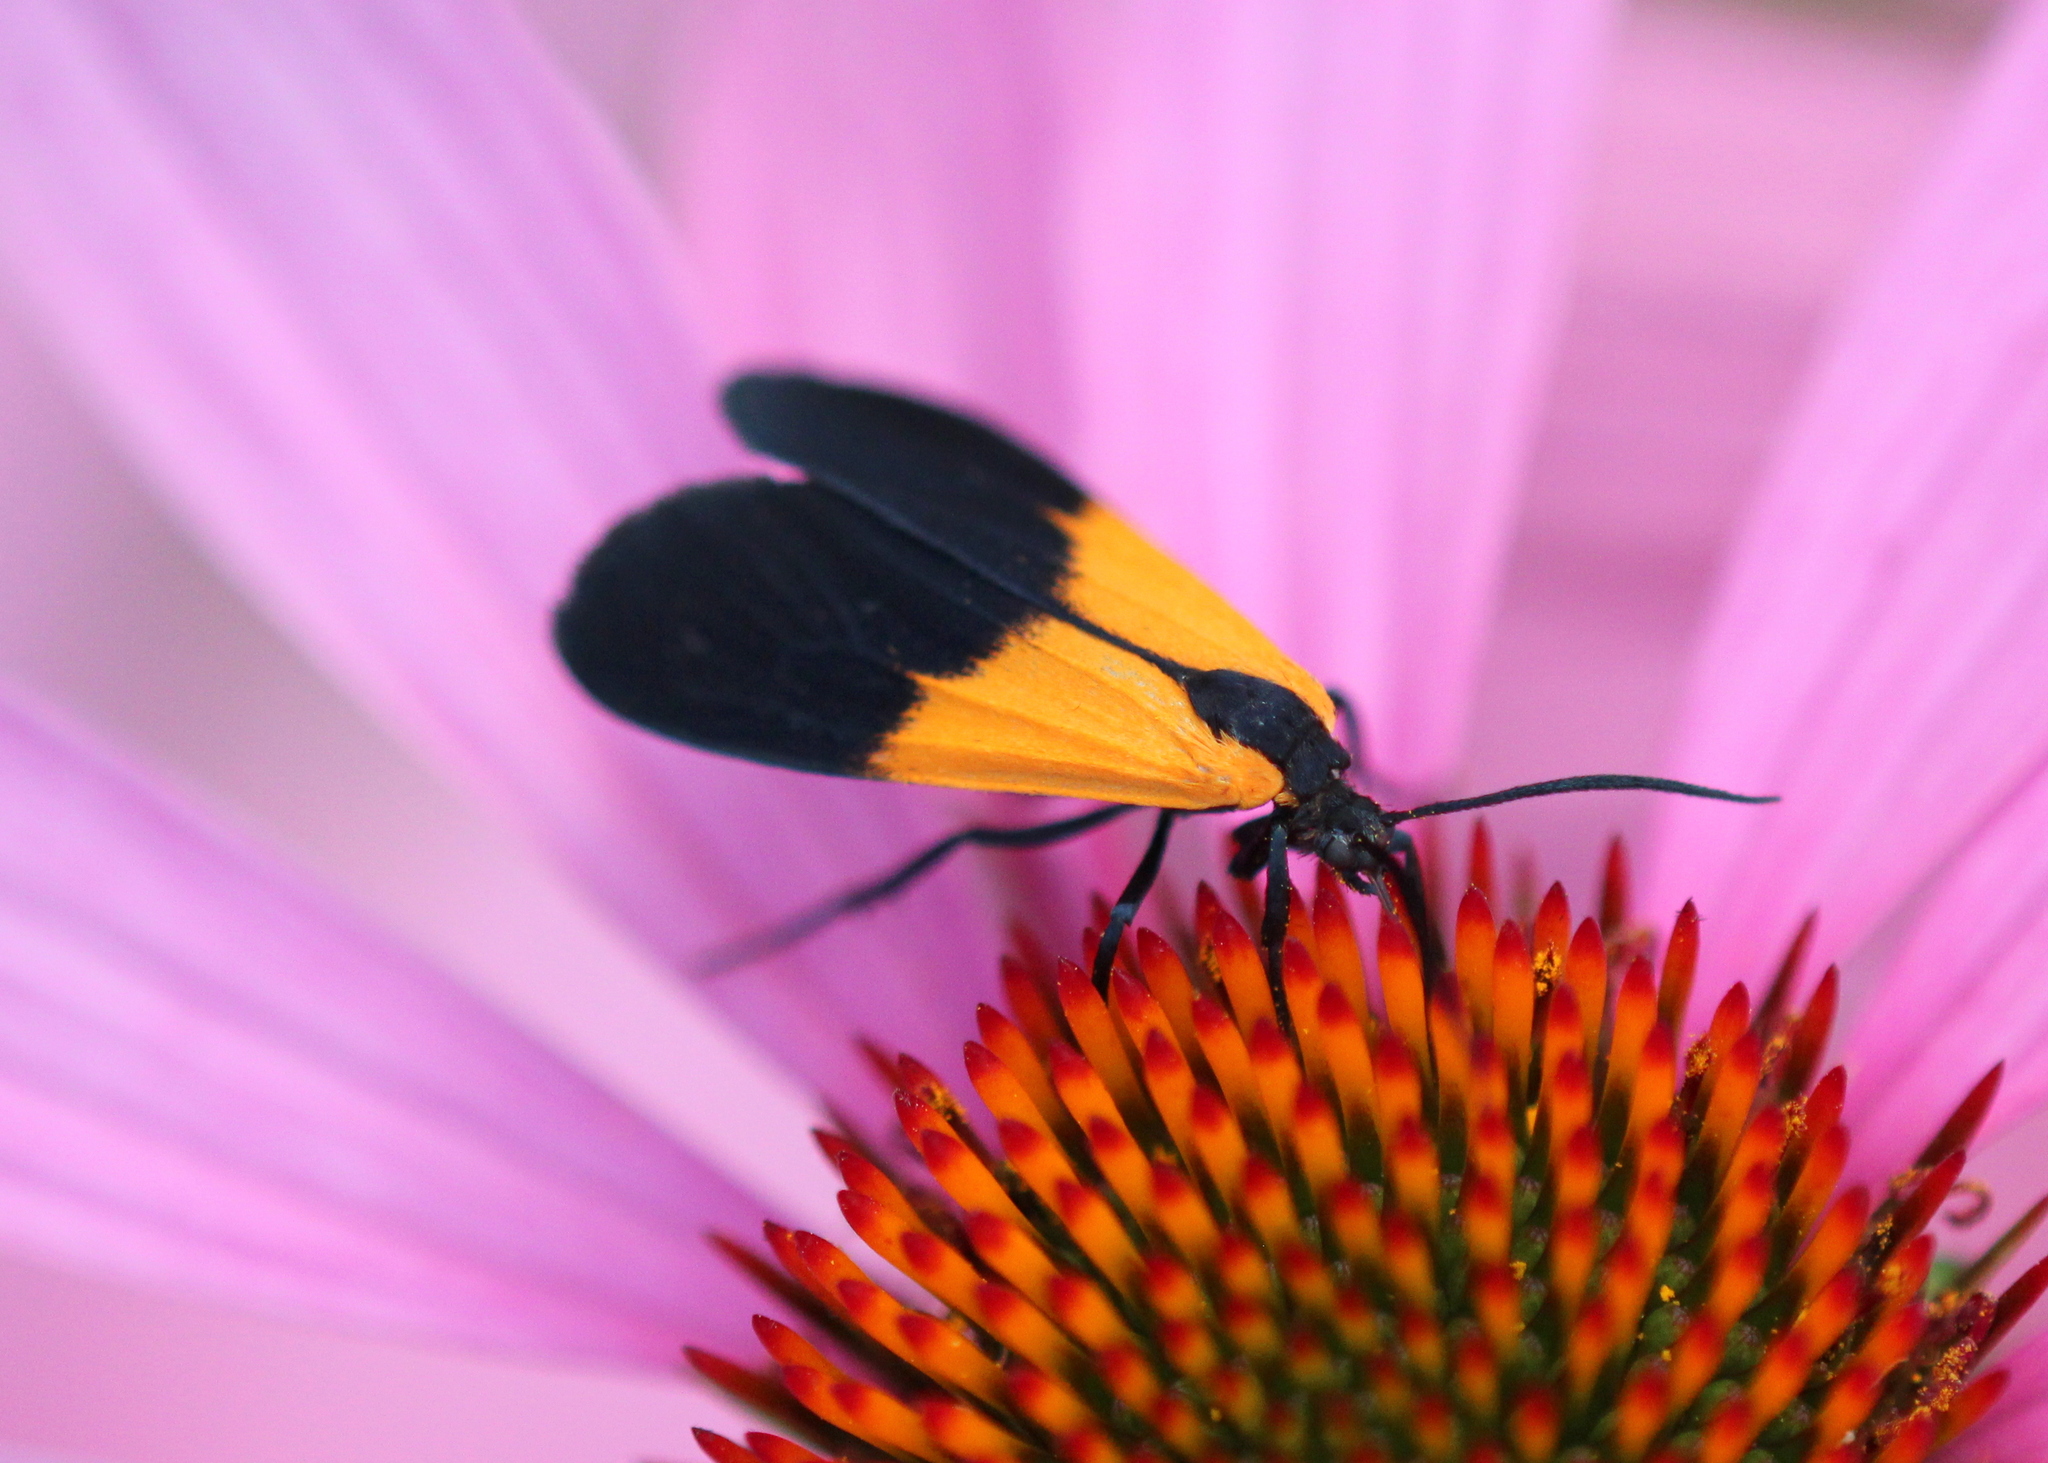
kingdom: Animalia
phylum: Arthropoda
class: Insecta
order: Lepidoptera
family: Erebidae
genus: Lycomorpha
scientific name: Lycomorpha pholus
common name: Black-and-yellow lichen moth
